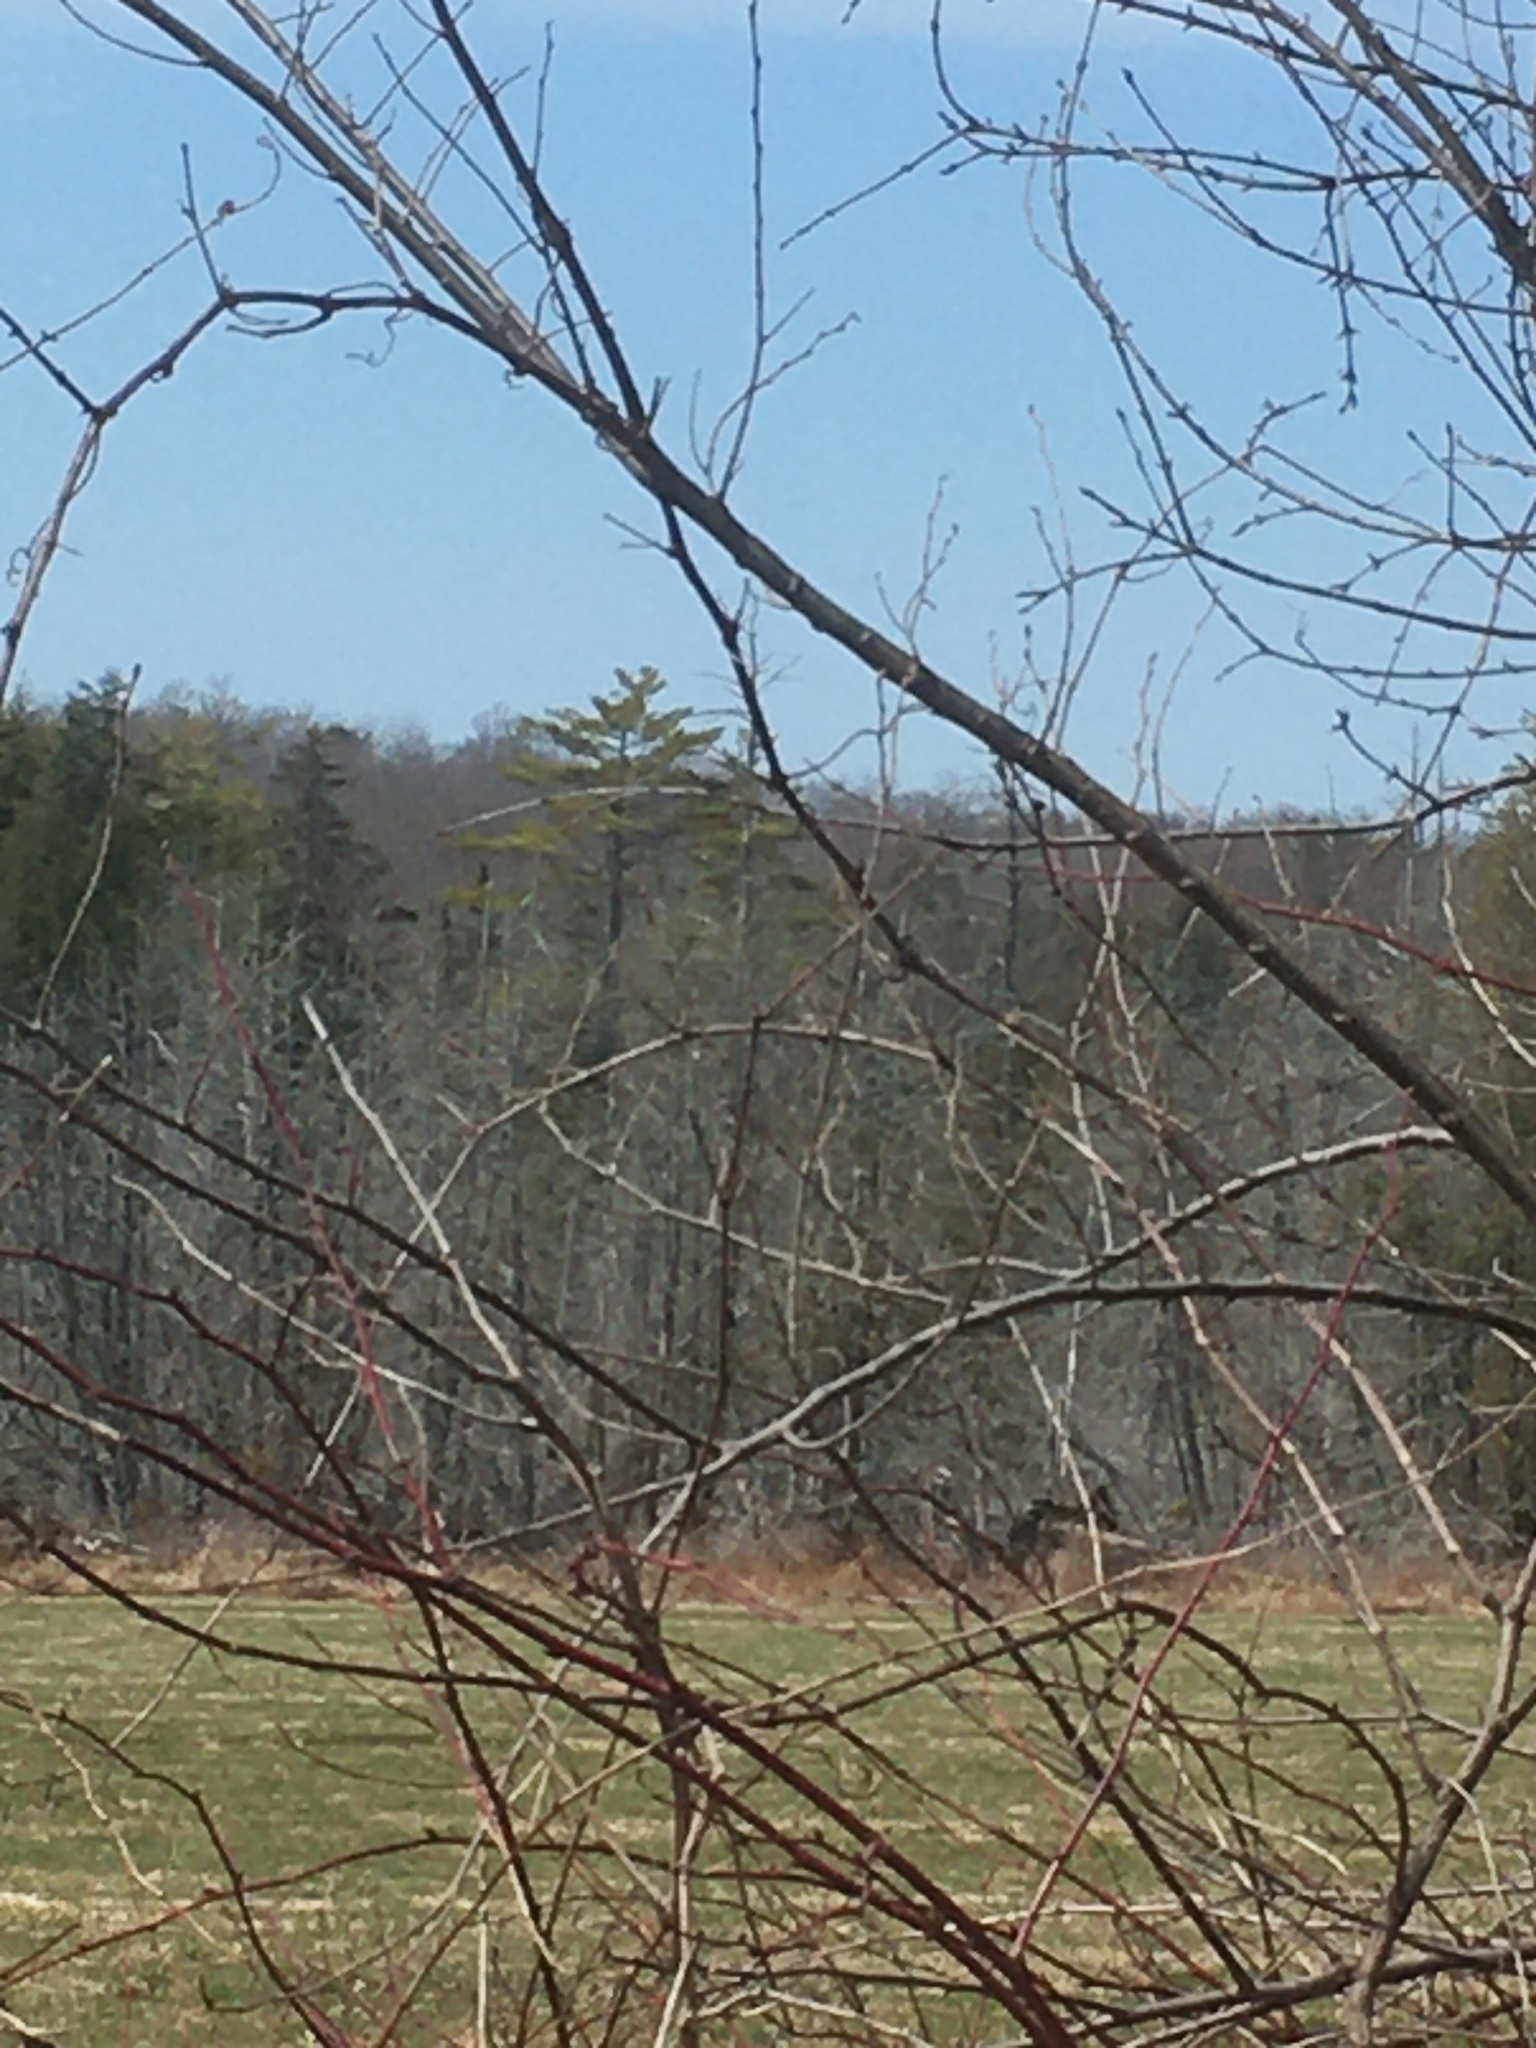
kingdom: Plantae
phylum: Tracheophyta
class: Pinopsida
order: Pinales
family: Pinaceae
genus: Pinus
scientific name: Pinus strobus
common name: Weymouth pine
